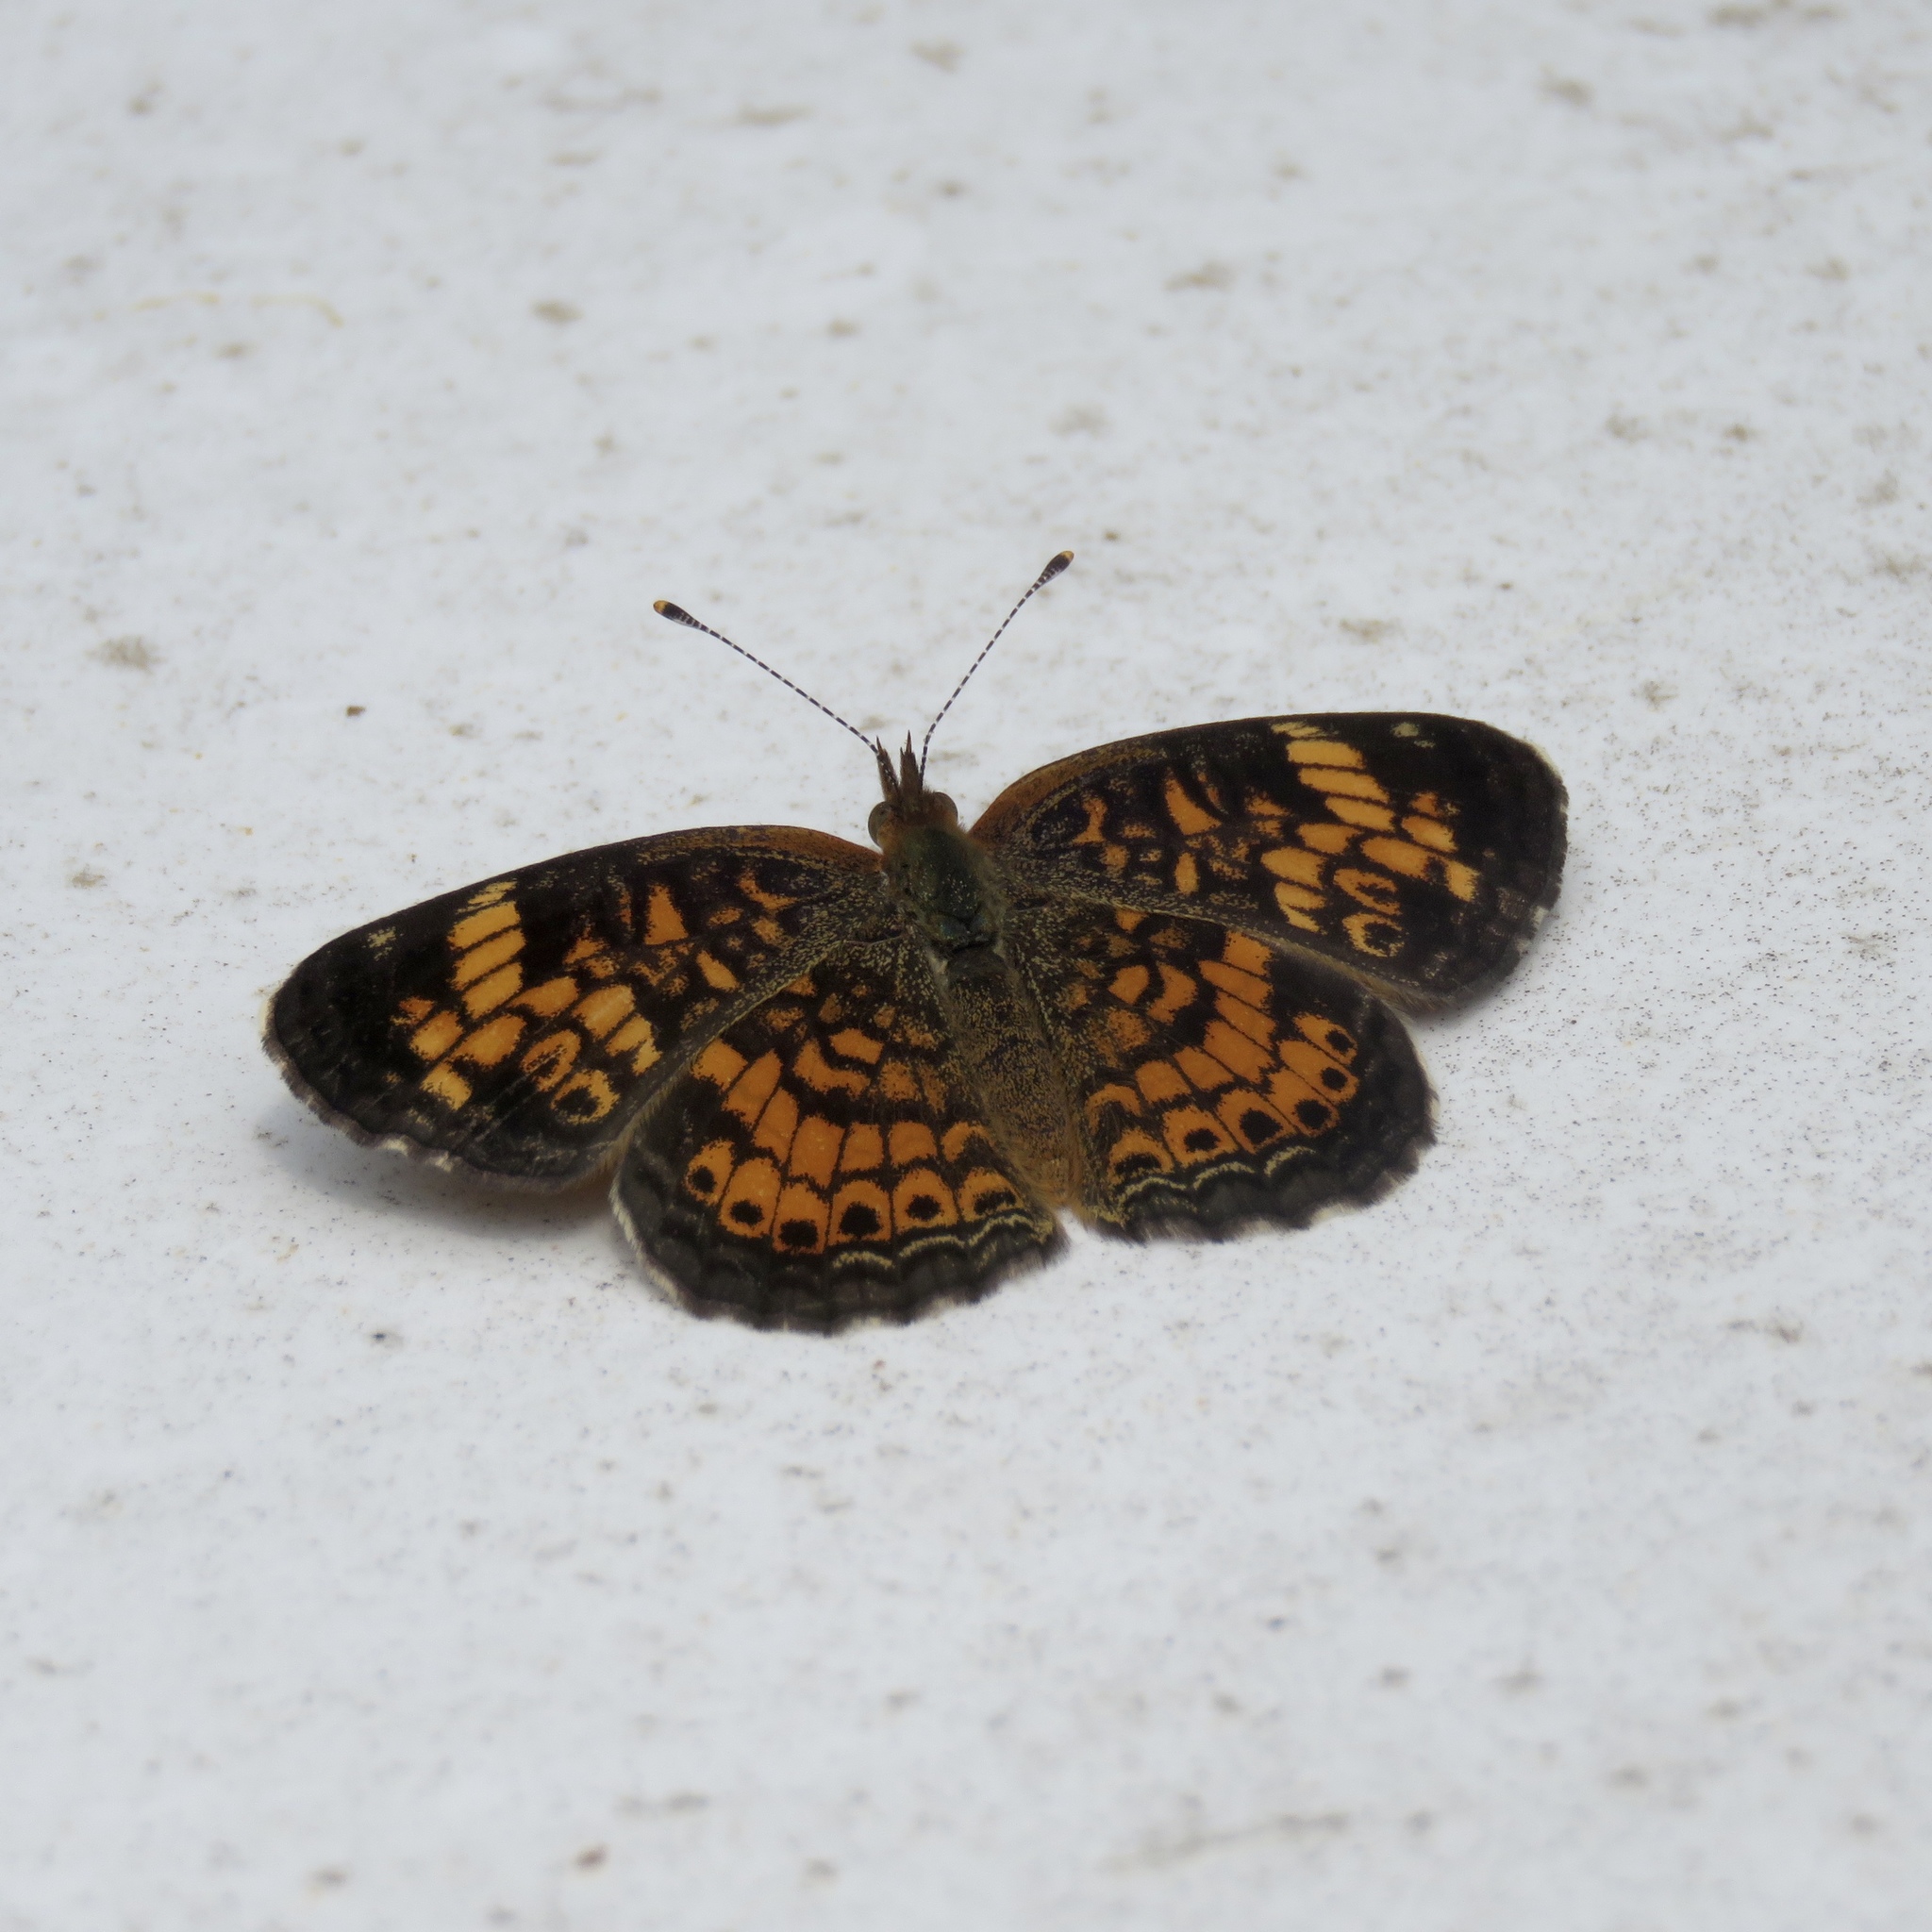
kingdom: Animalia
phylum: Arthropoda
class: Insecta
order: Lepidoptera
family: Nymphalidae
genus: Phyciodes
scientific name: Phyciodes tharos
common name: Pearl crescent
